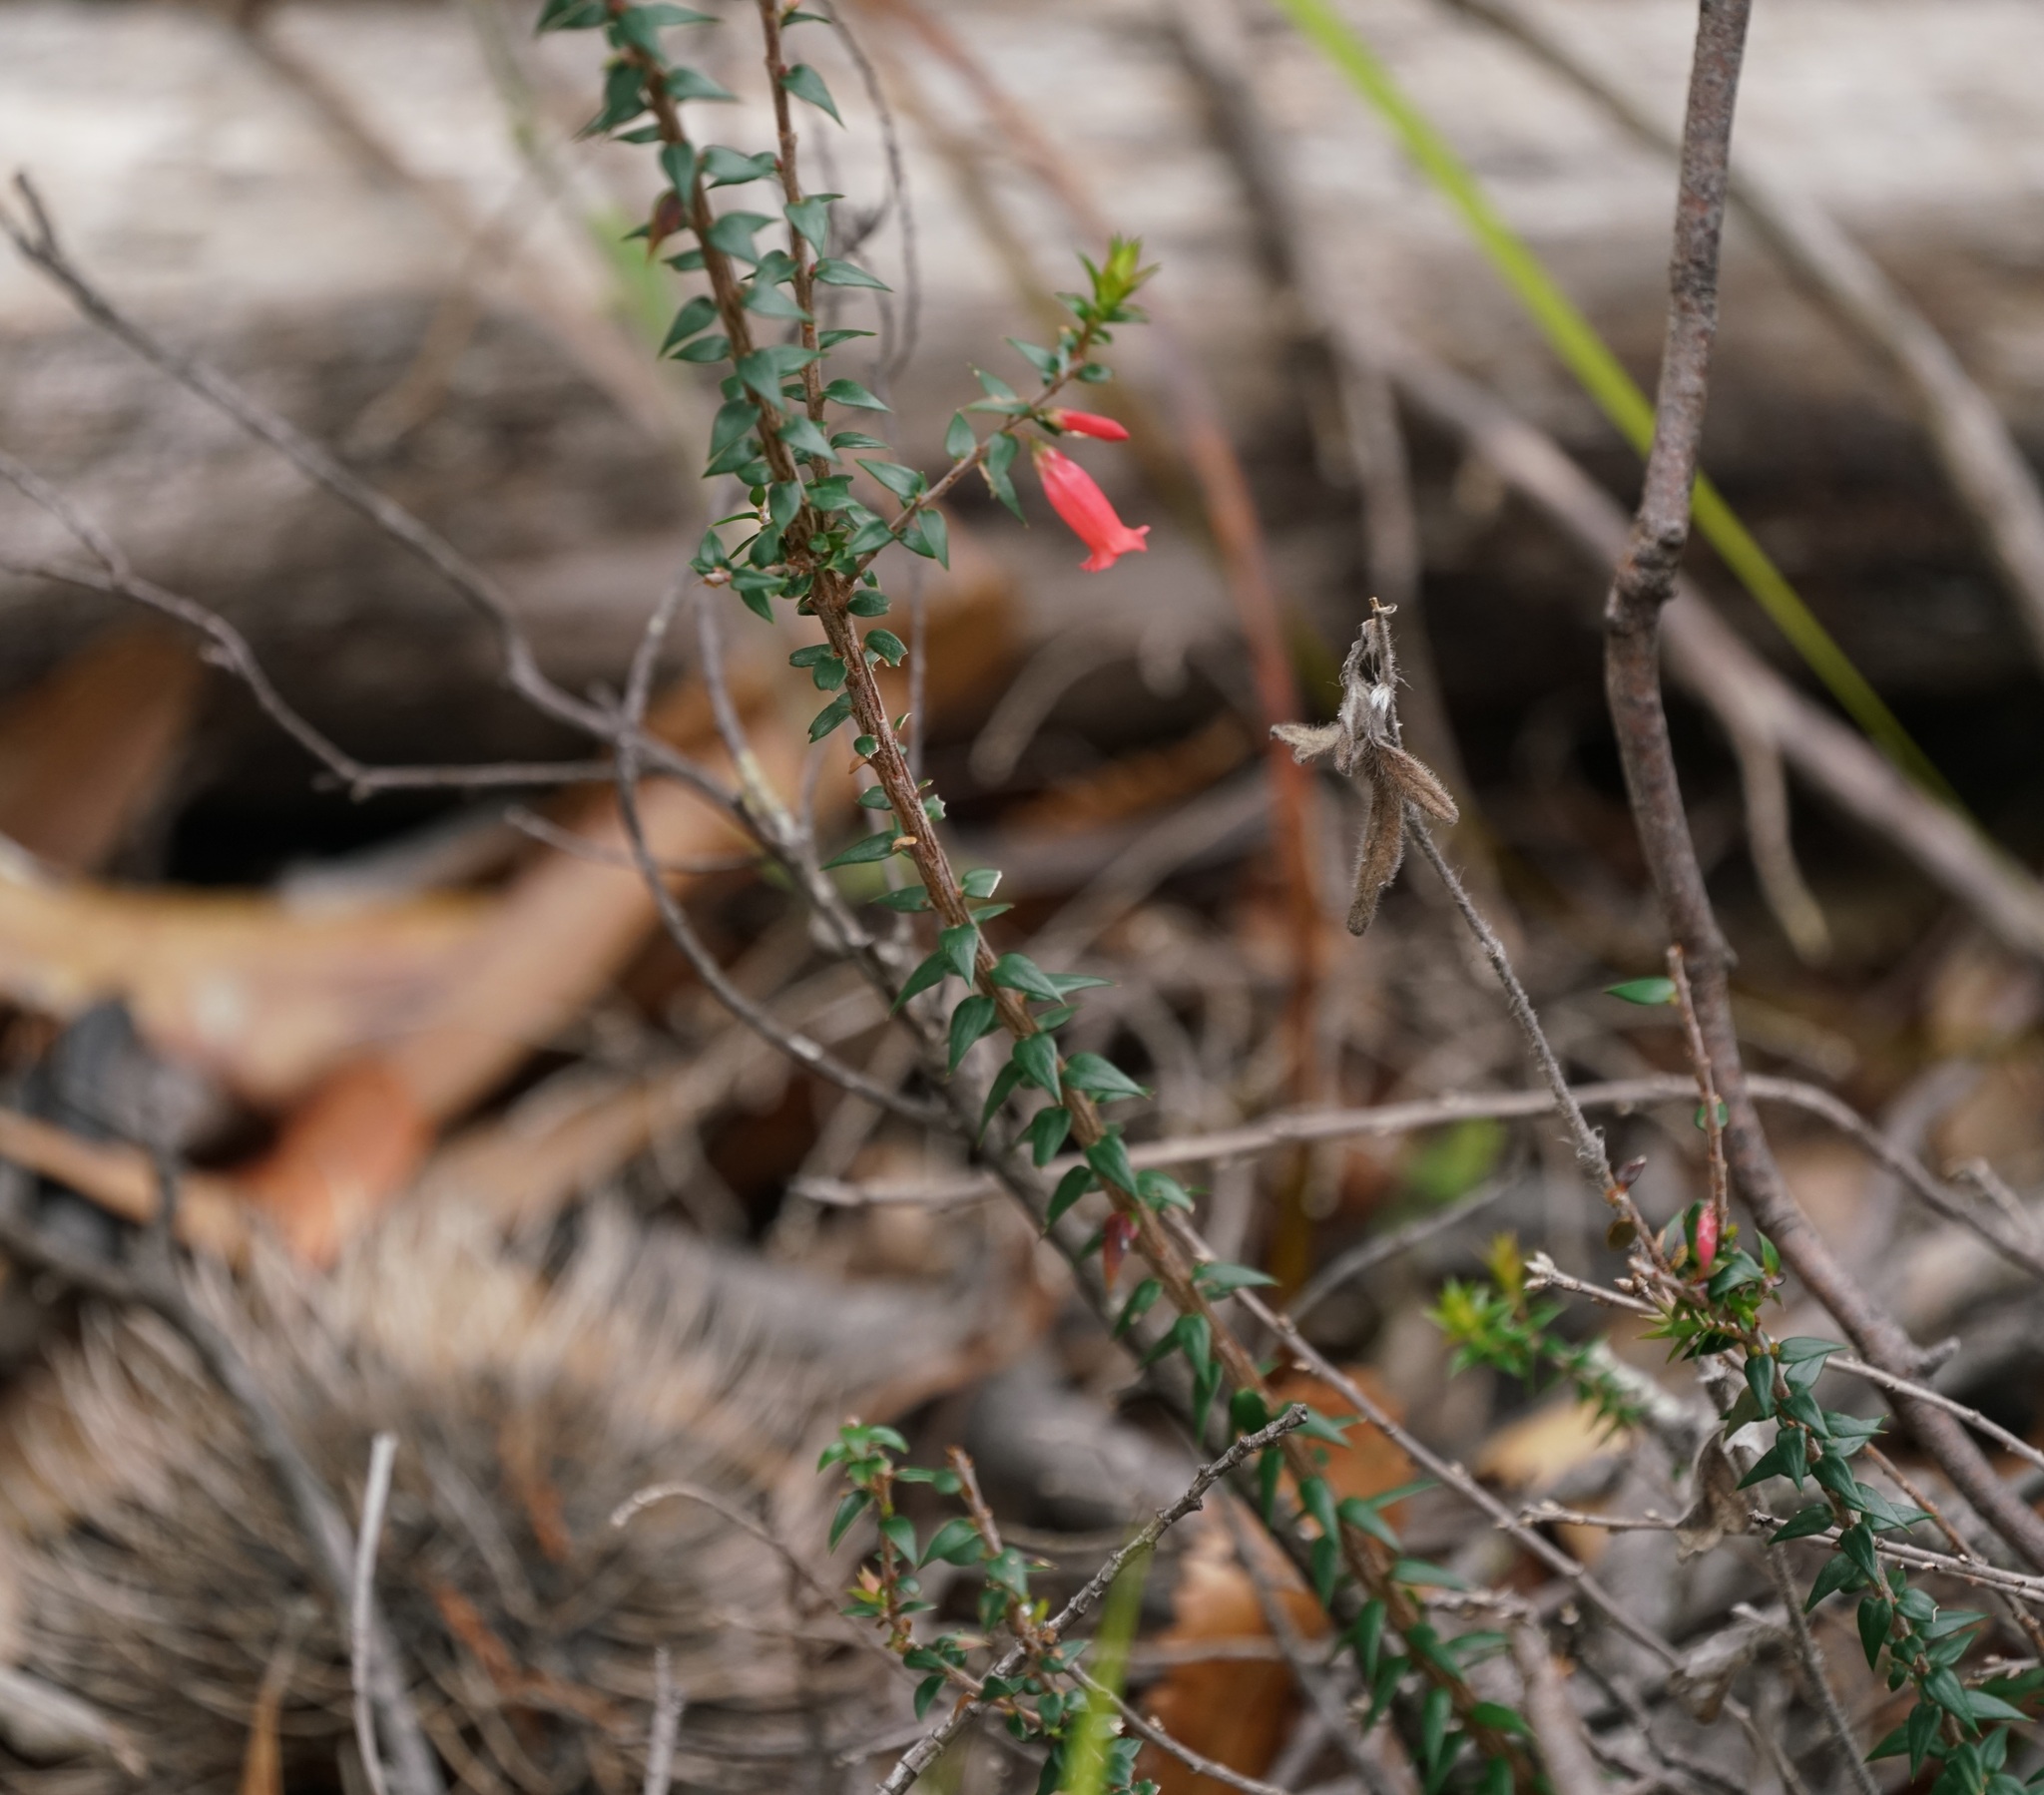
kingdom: Plantae
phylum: Tracheophyta
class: Magnoliopsida
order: Ericales
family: Ericaceae
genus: Epacris
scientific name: Epacris impressa
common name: Common-heath
